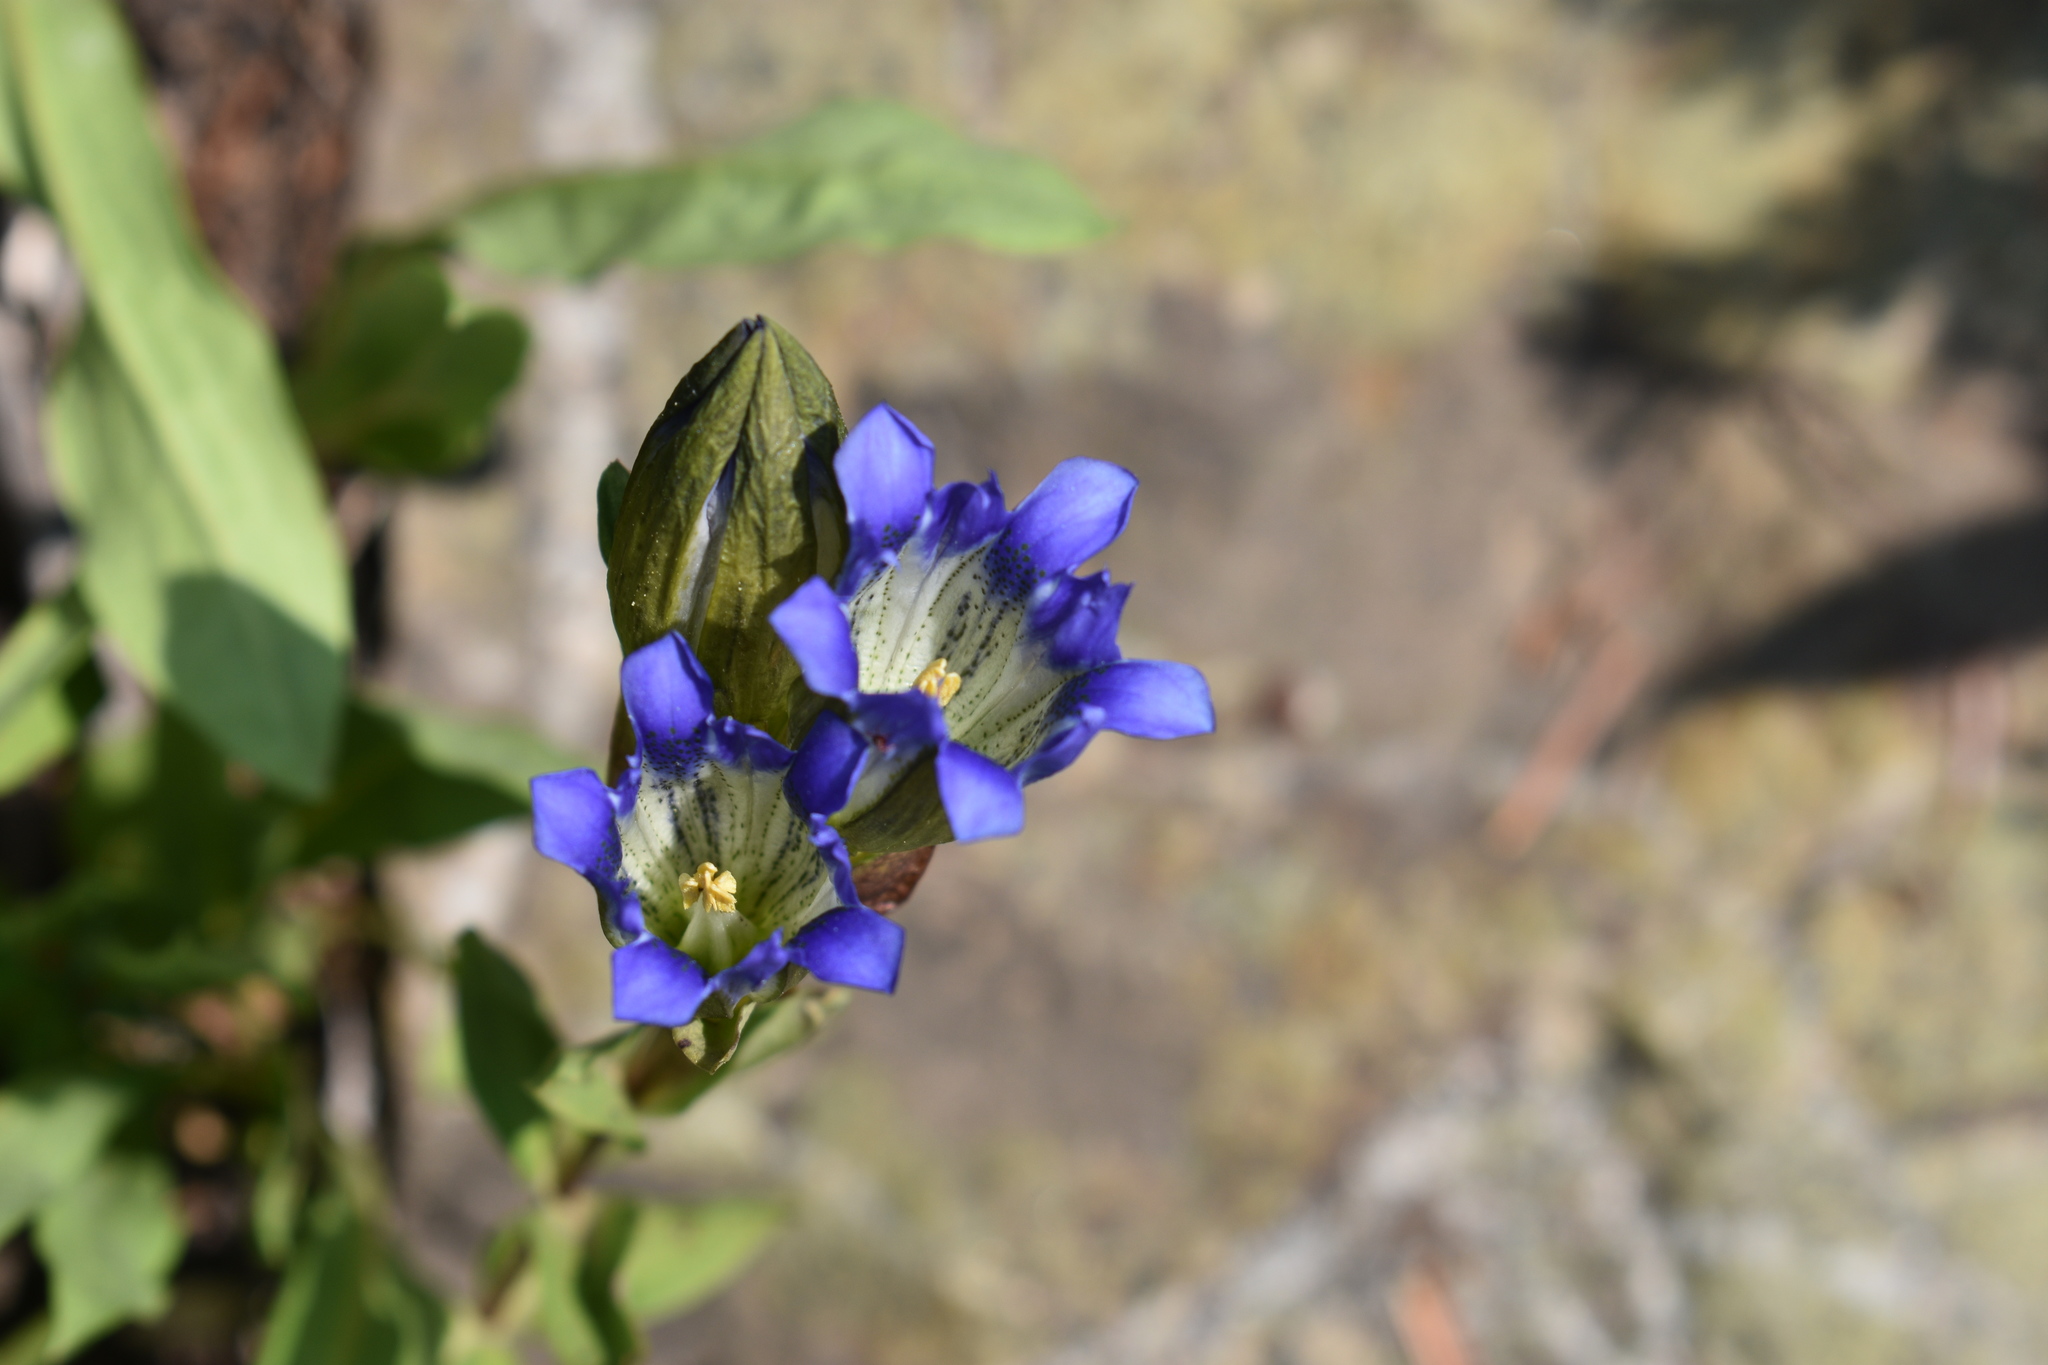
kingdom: Plantae
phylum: Tracheophyta
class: Magnoliopsida
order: Gentianales
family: Gentianaceae
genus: Gentiana
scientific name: Gentiana parryi
